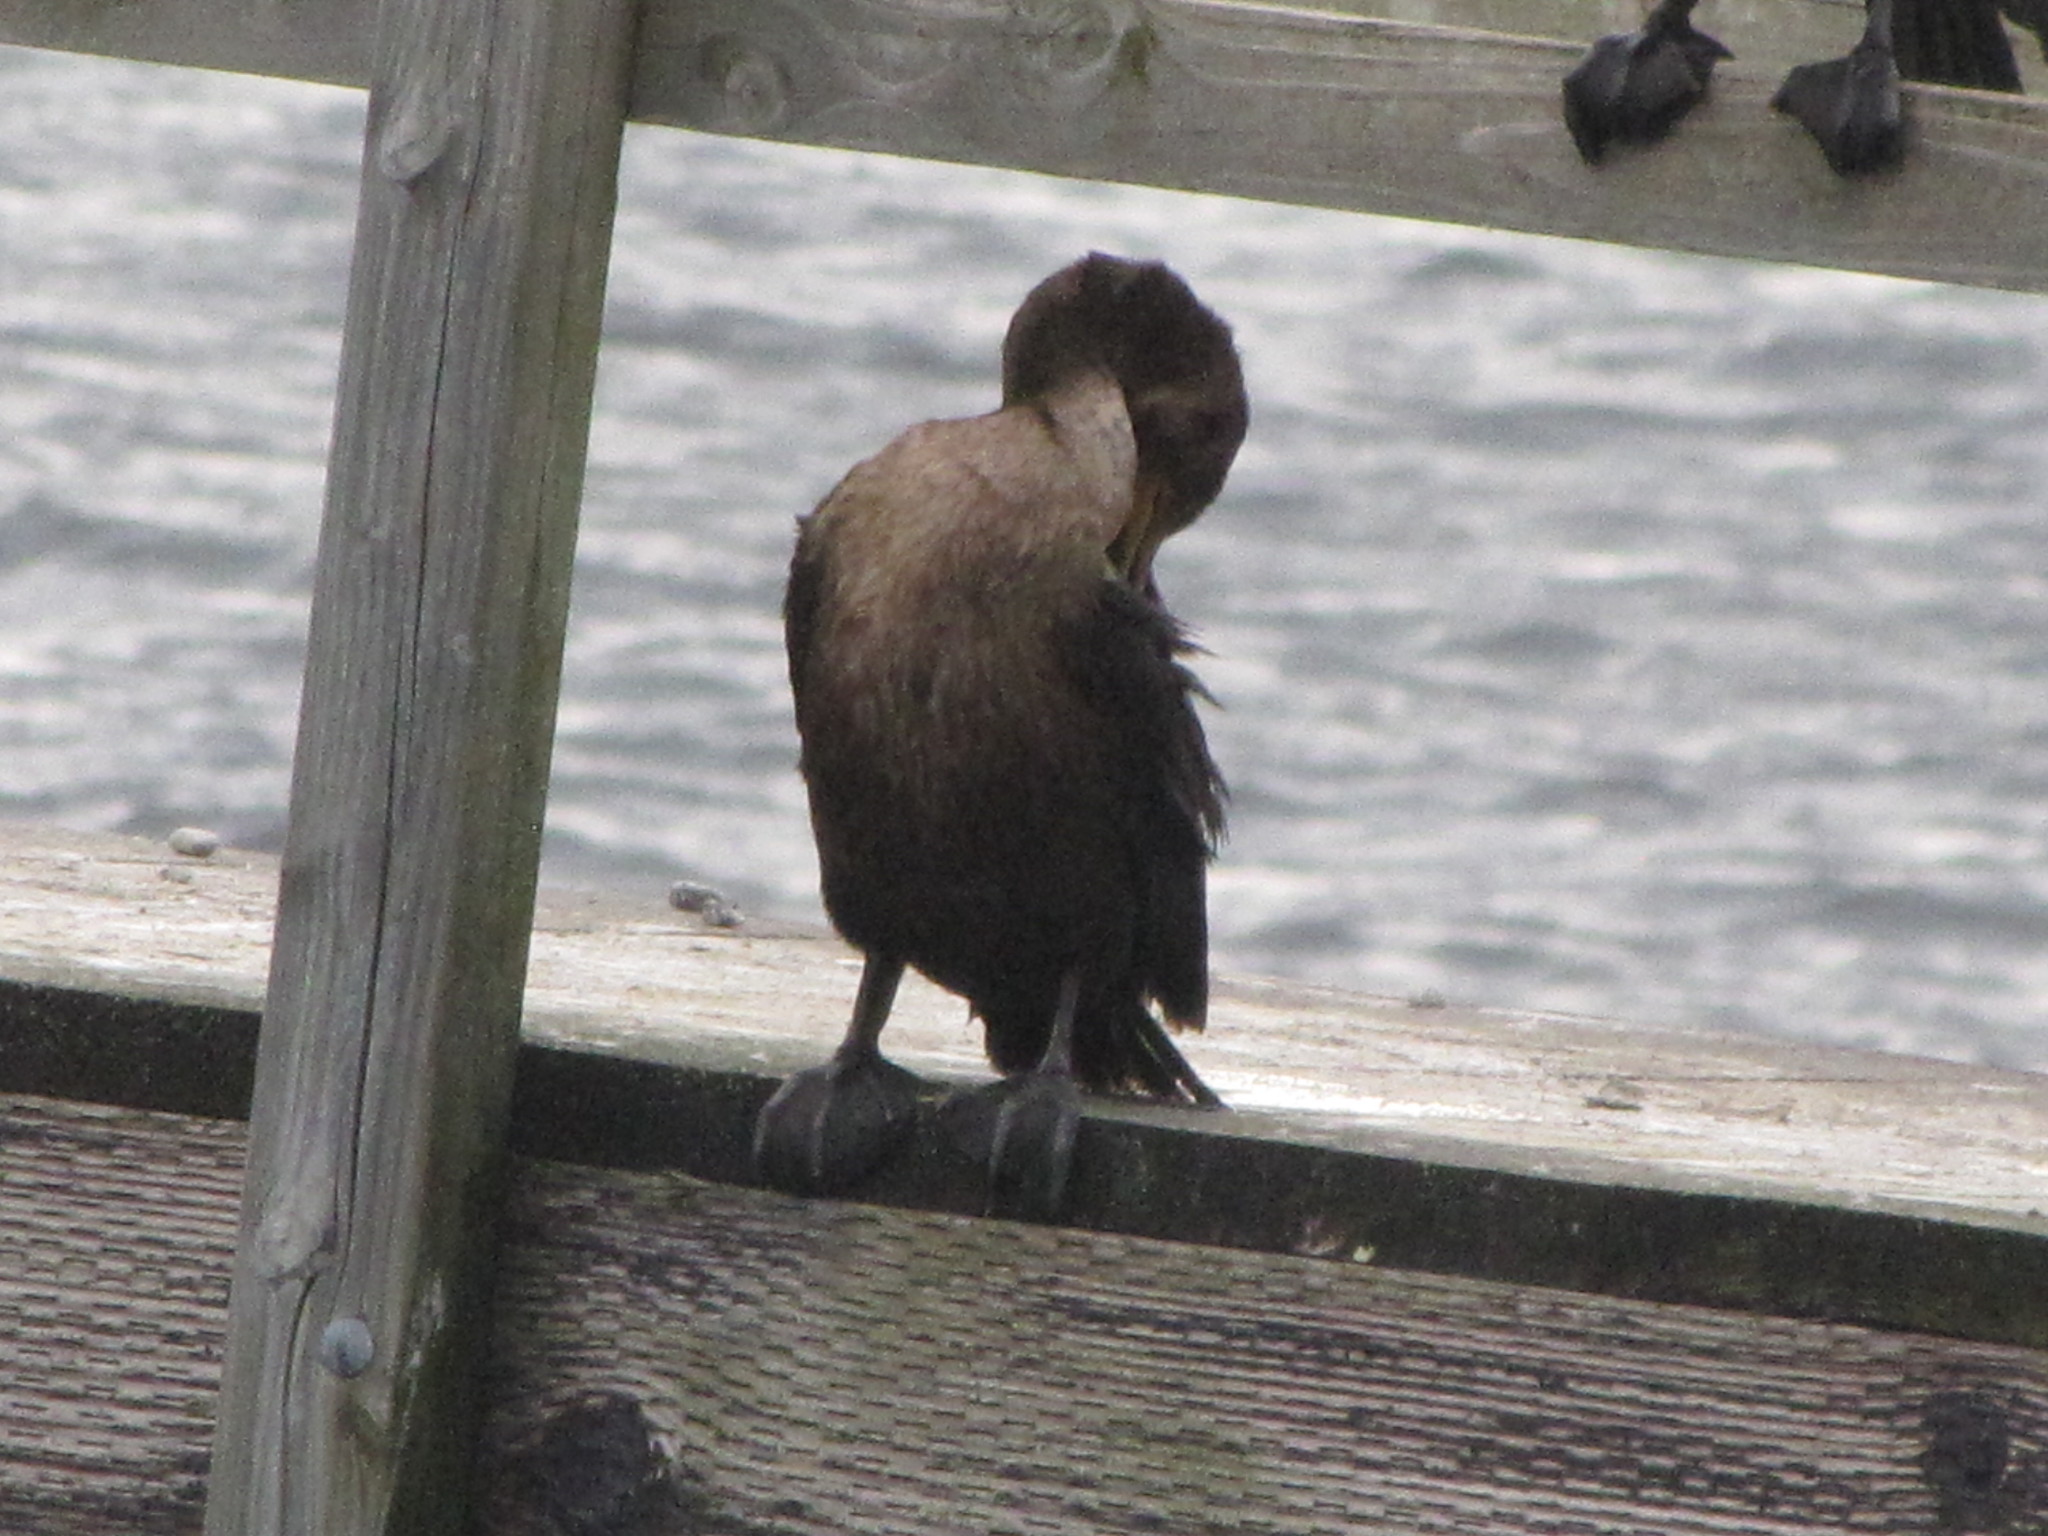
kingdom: Animalia
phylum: Chordata
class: Aves
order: Suliformes
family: Phalacrocoracidae
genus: Phalacrocorax
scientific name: Phalacrocorax auritus
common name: Double-crested cormorant
